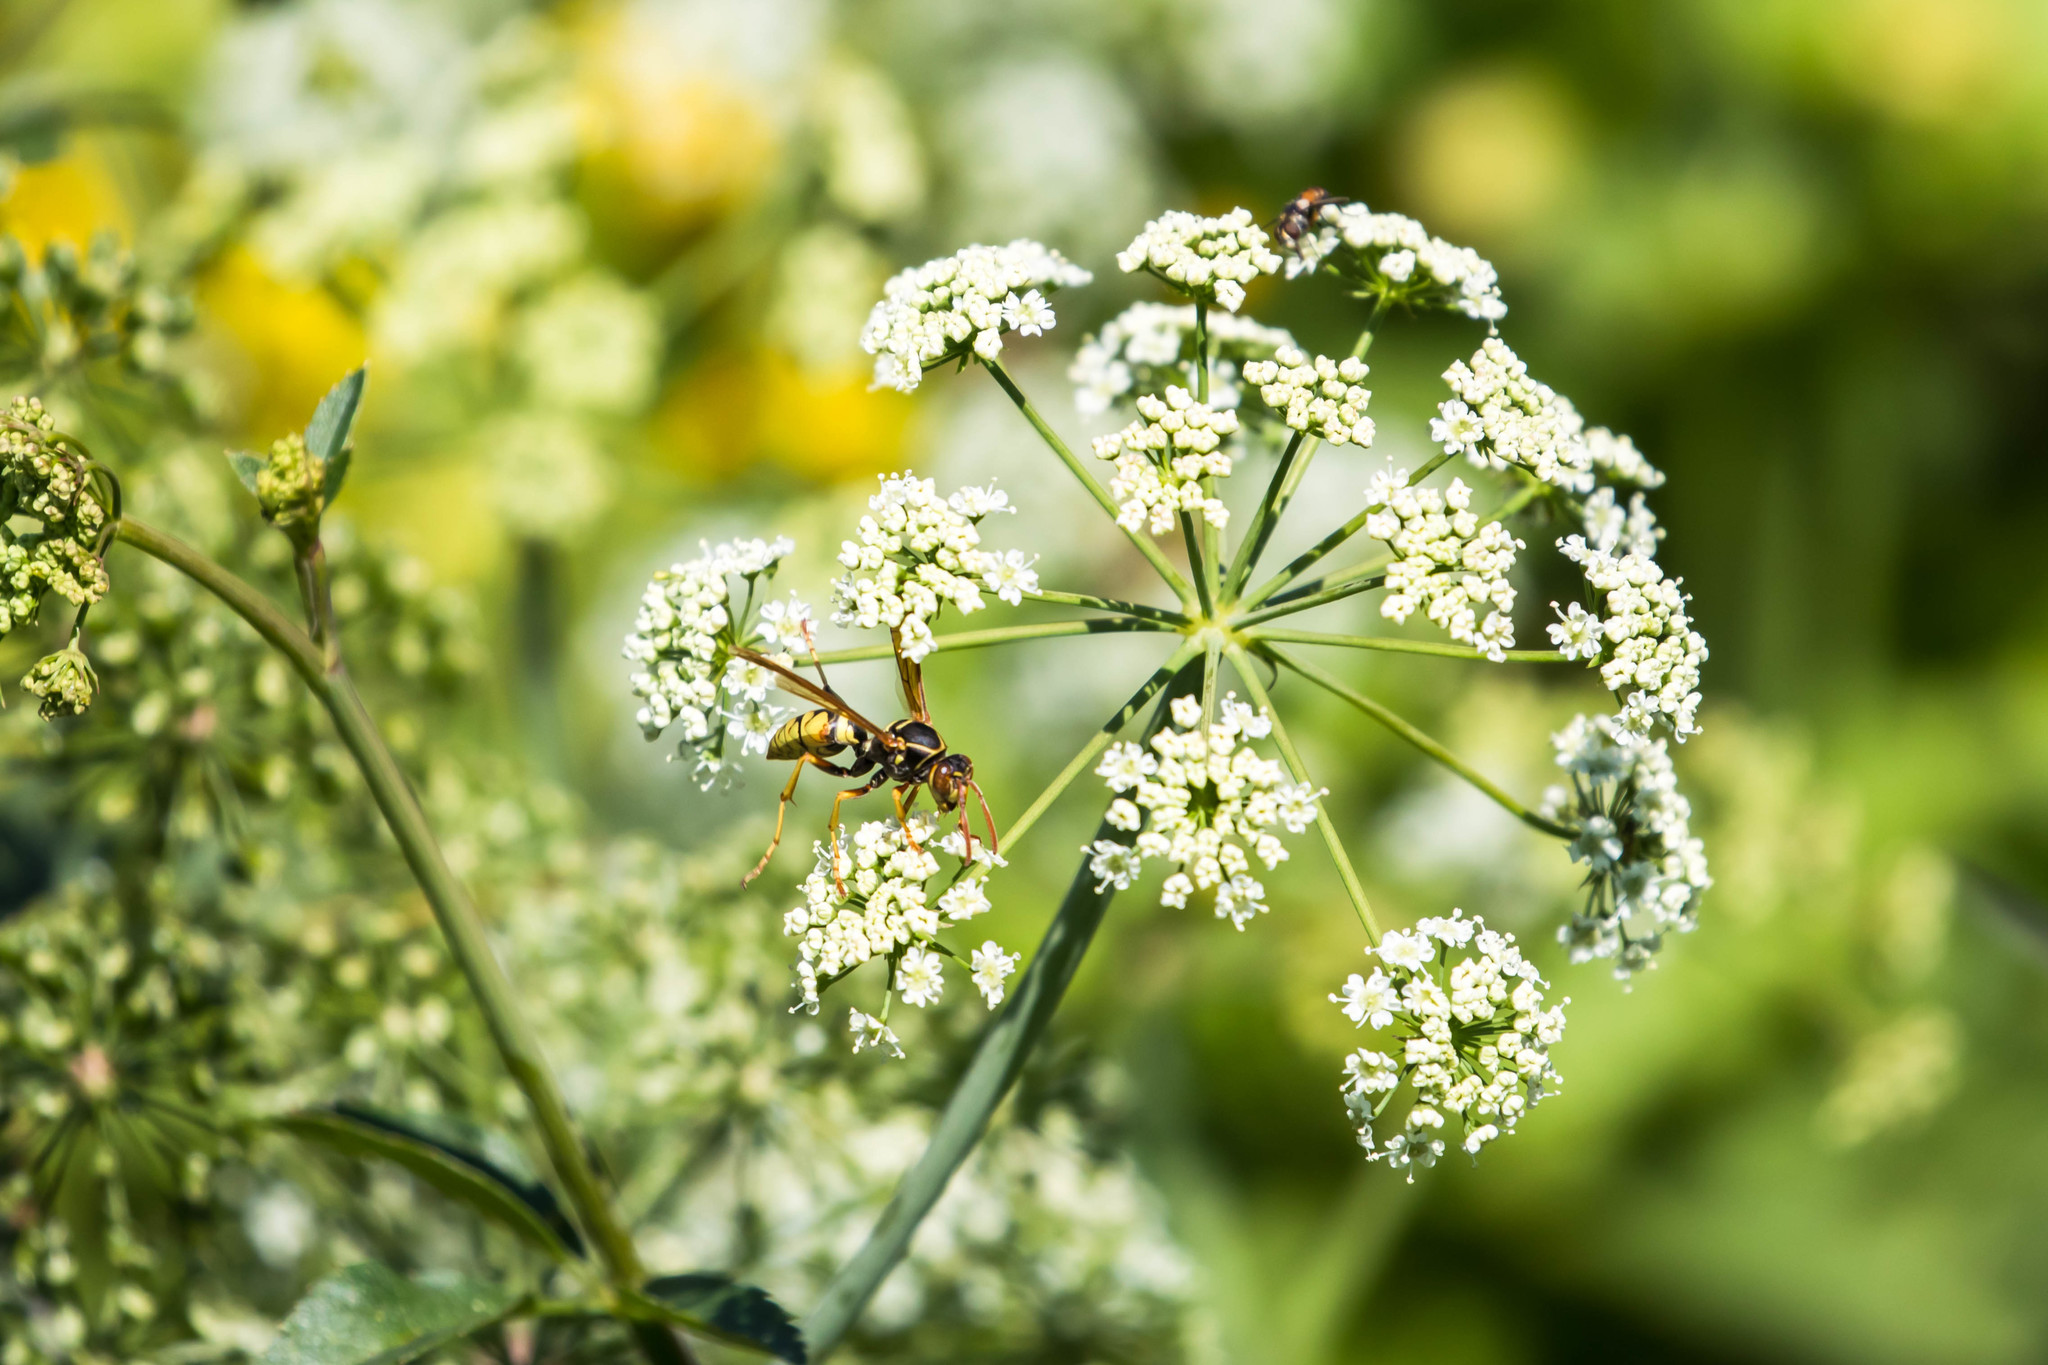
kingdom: Animalia
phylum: Arthropoda
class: Insecta
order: Hymenoptera
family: Eumenidae
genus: Polistes
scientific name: Polistes aurifer
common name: Paper wasp
